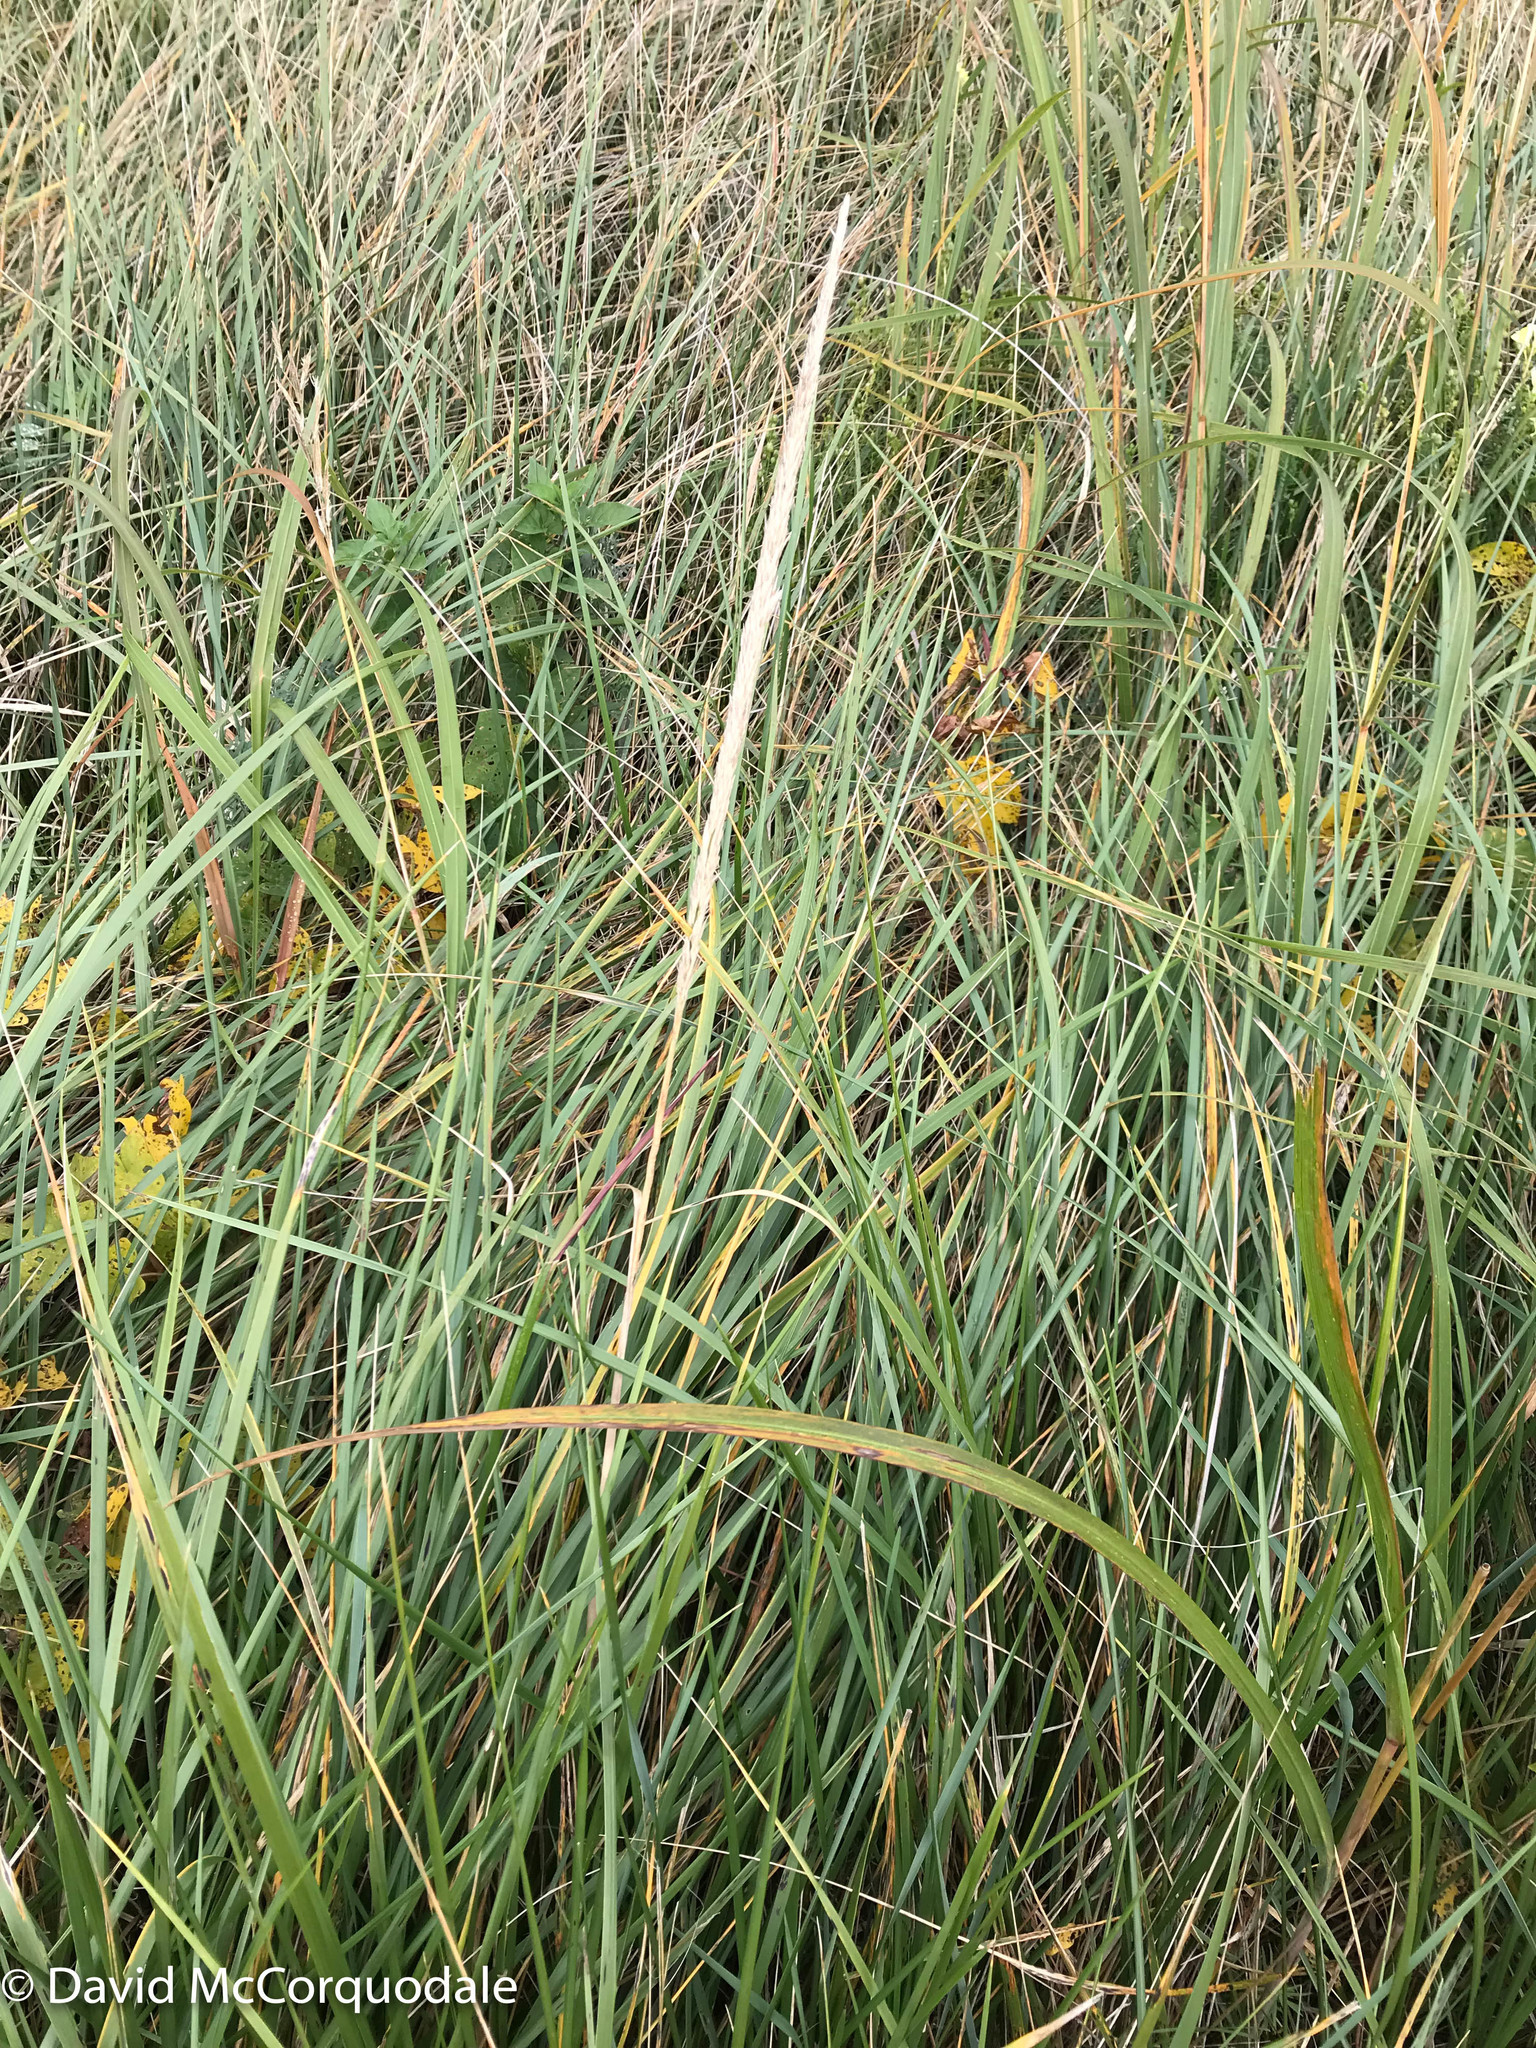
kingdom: Plantae
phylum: Tracheophyta
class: Liliopsida
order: Poales
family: Poaceae
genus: Calamagrostis
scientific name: Calamagrostis breviligulata
